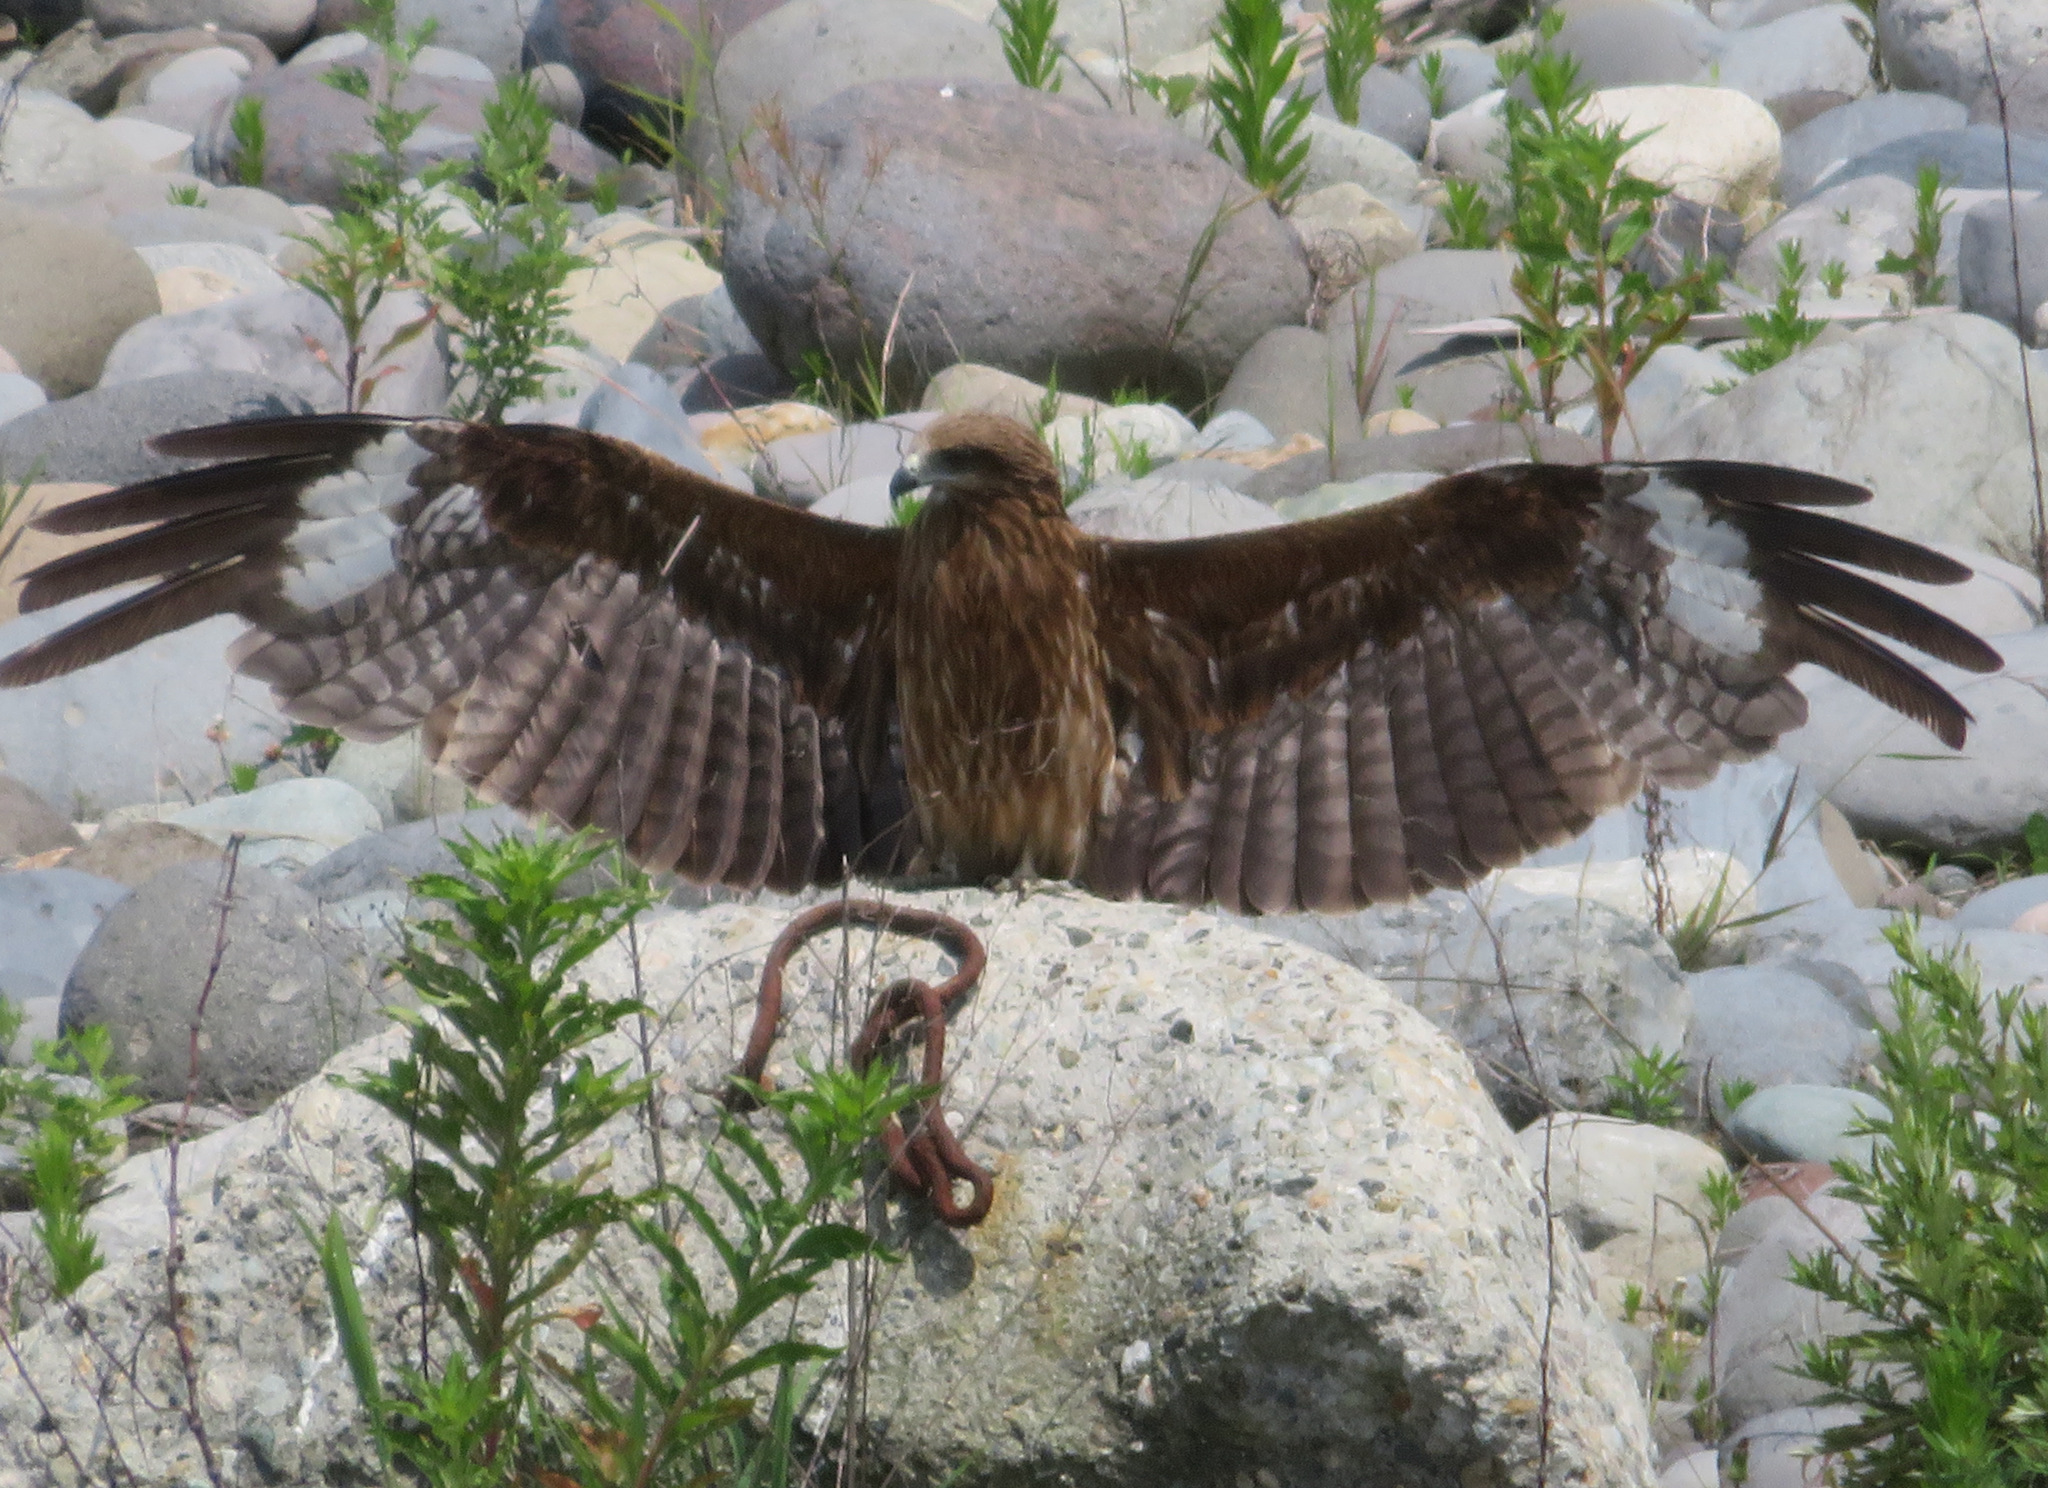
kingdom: Animalia
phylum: Chordata
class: Aves
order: Accipitriformes
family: Accipitridae
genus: Milvus
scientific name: Milvus migrans
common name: Black kite
